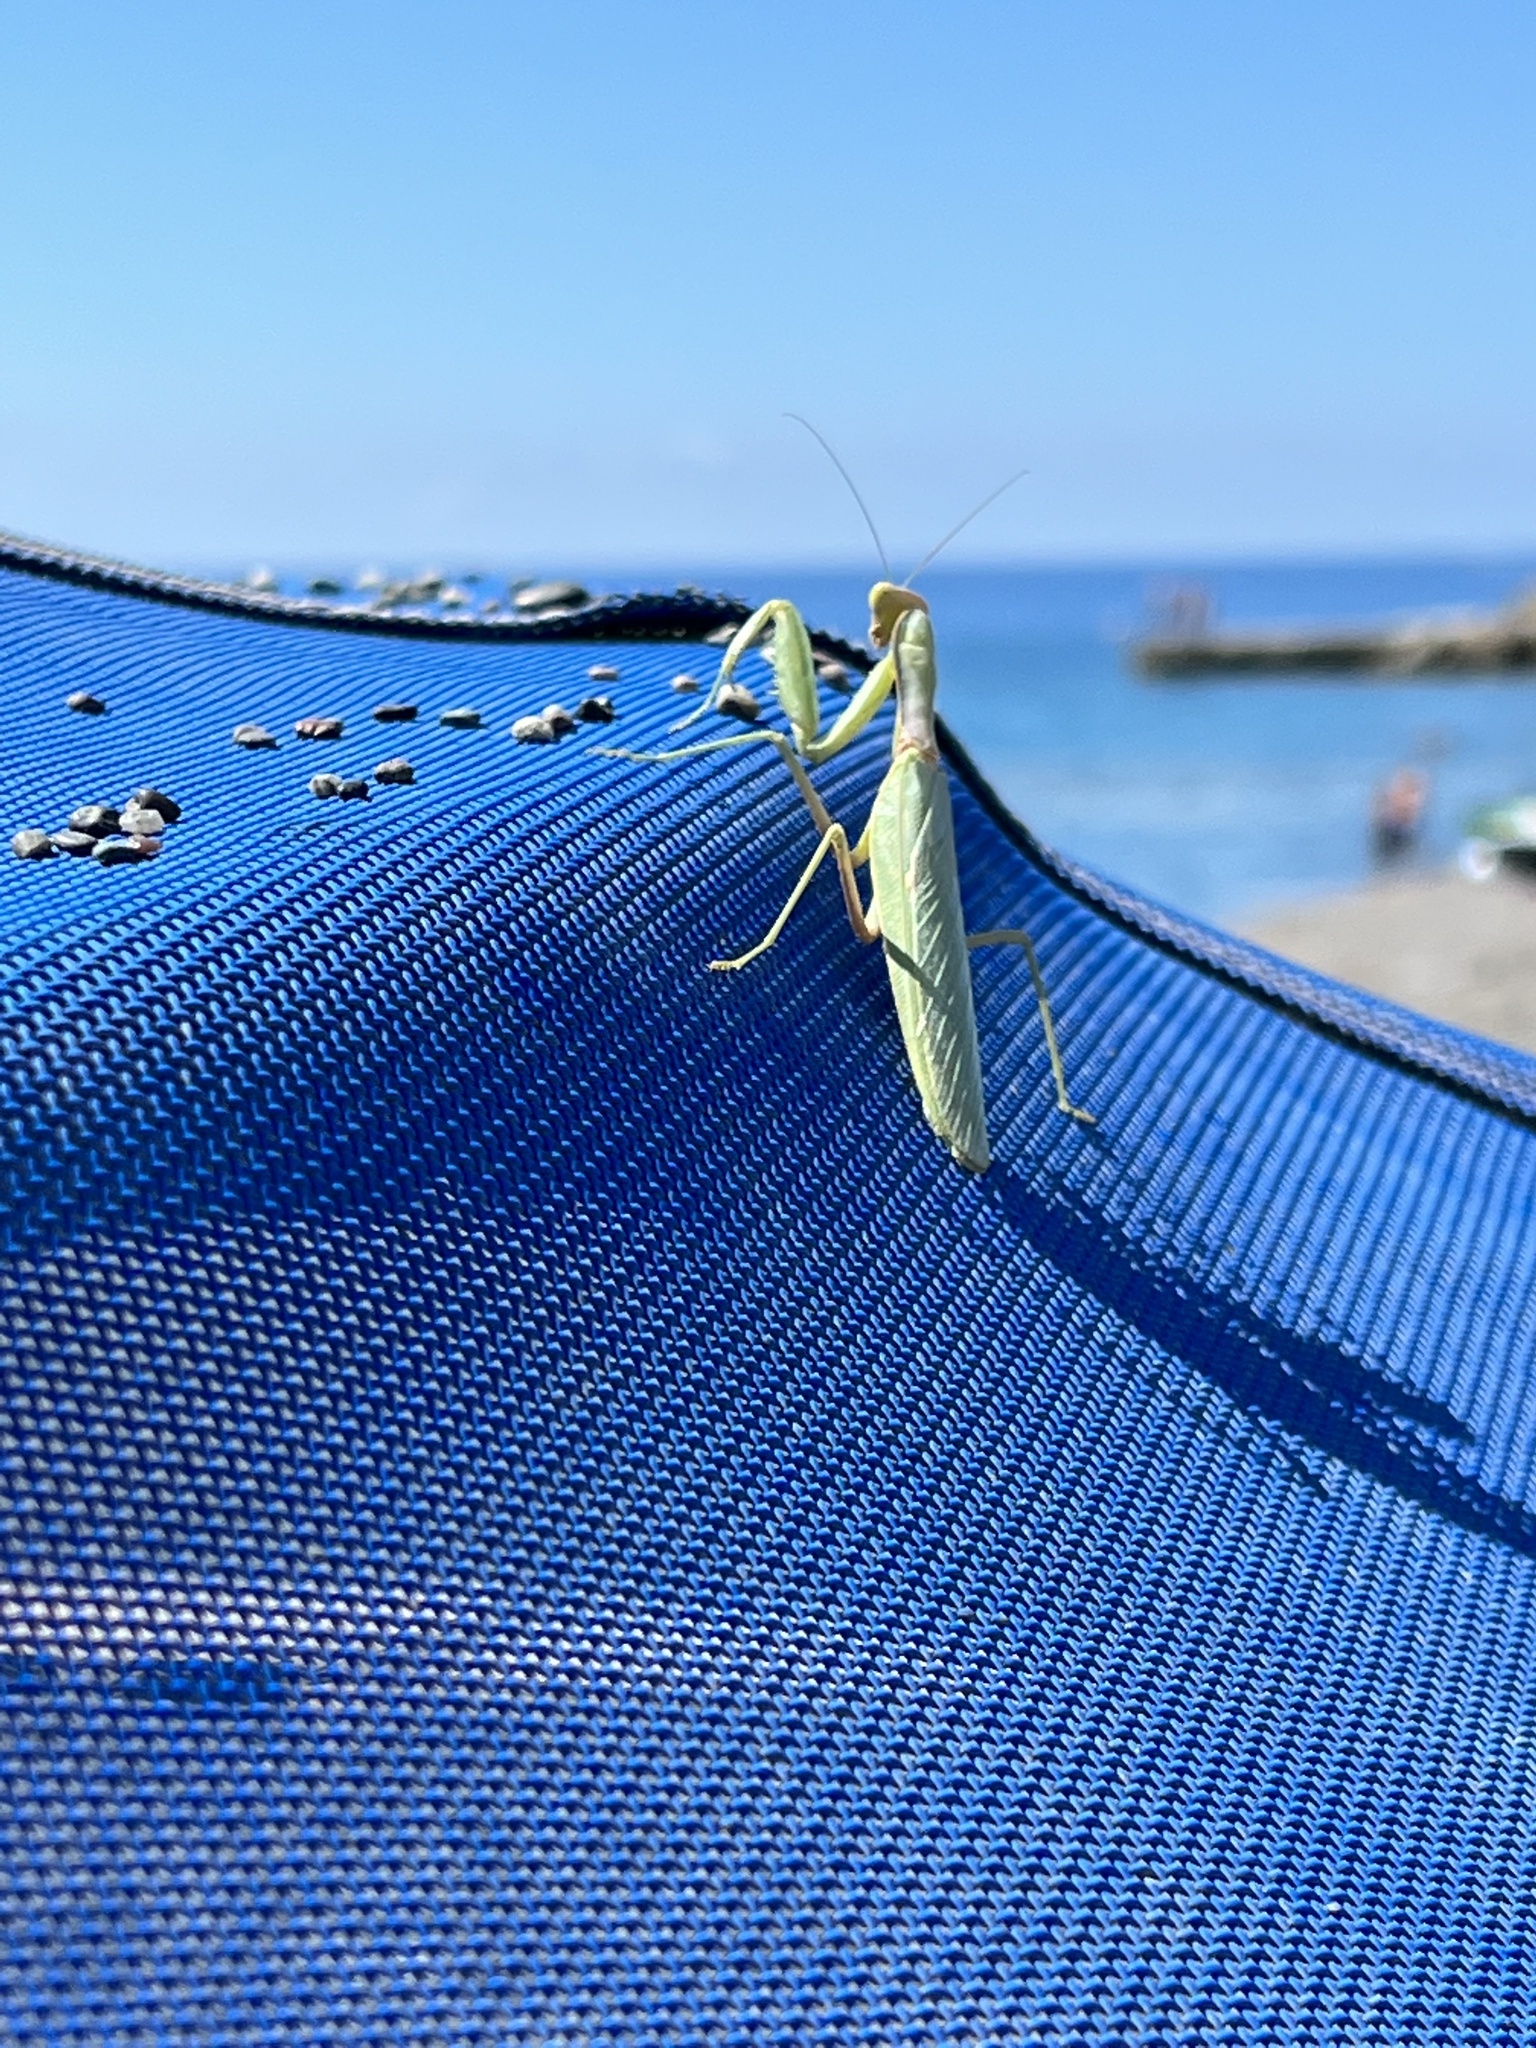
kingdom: Animalia
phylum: Arthropoda
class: Insecta
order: Mantodea
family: Mantidae
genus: Hierodula
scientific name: Hierodula transcaucasica
